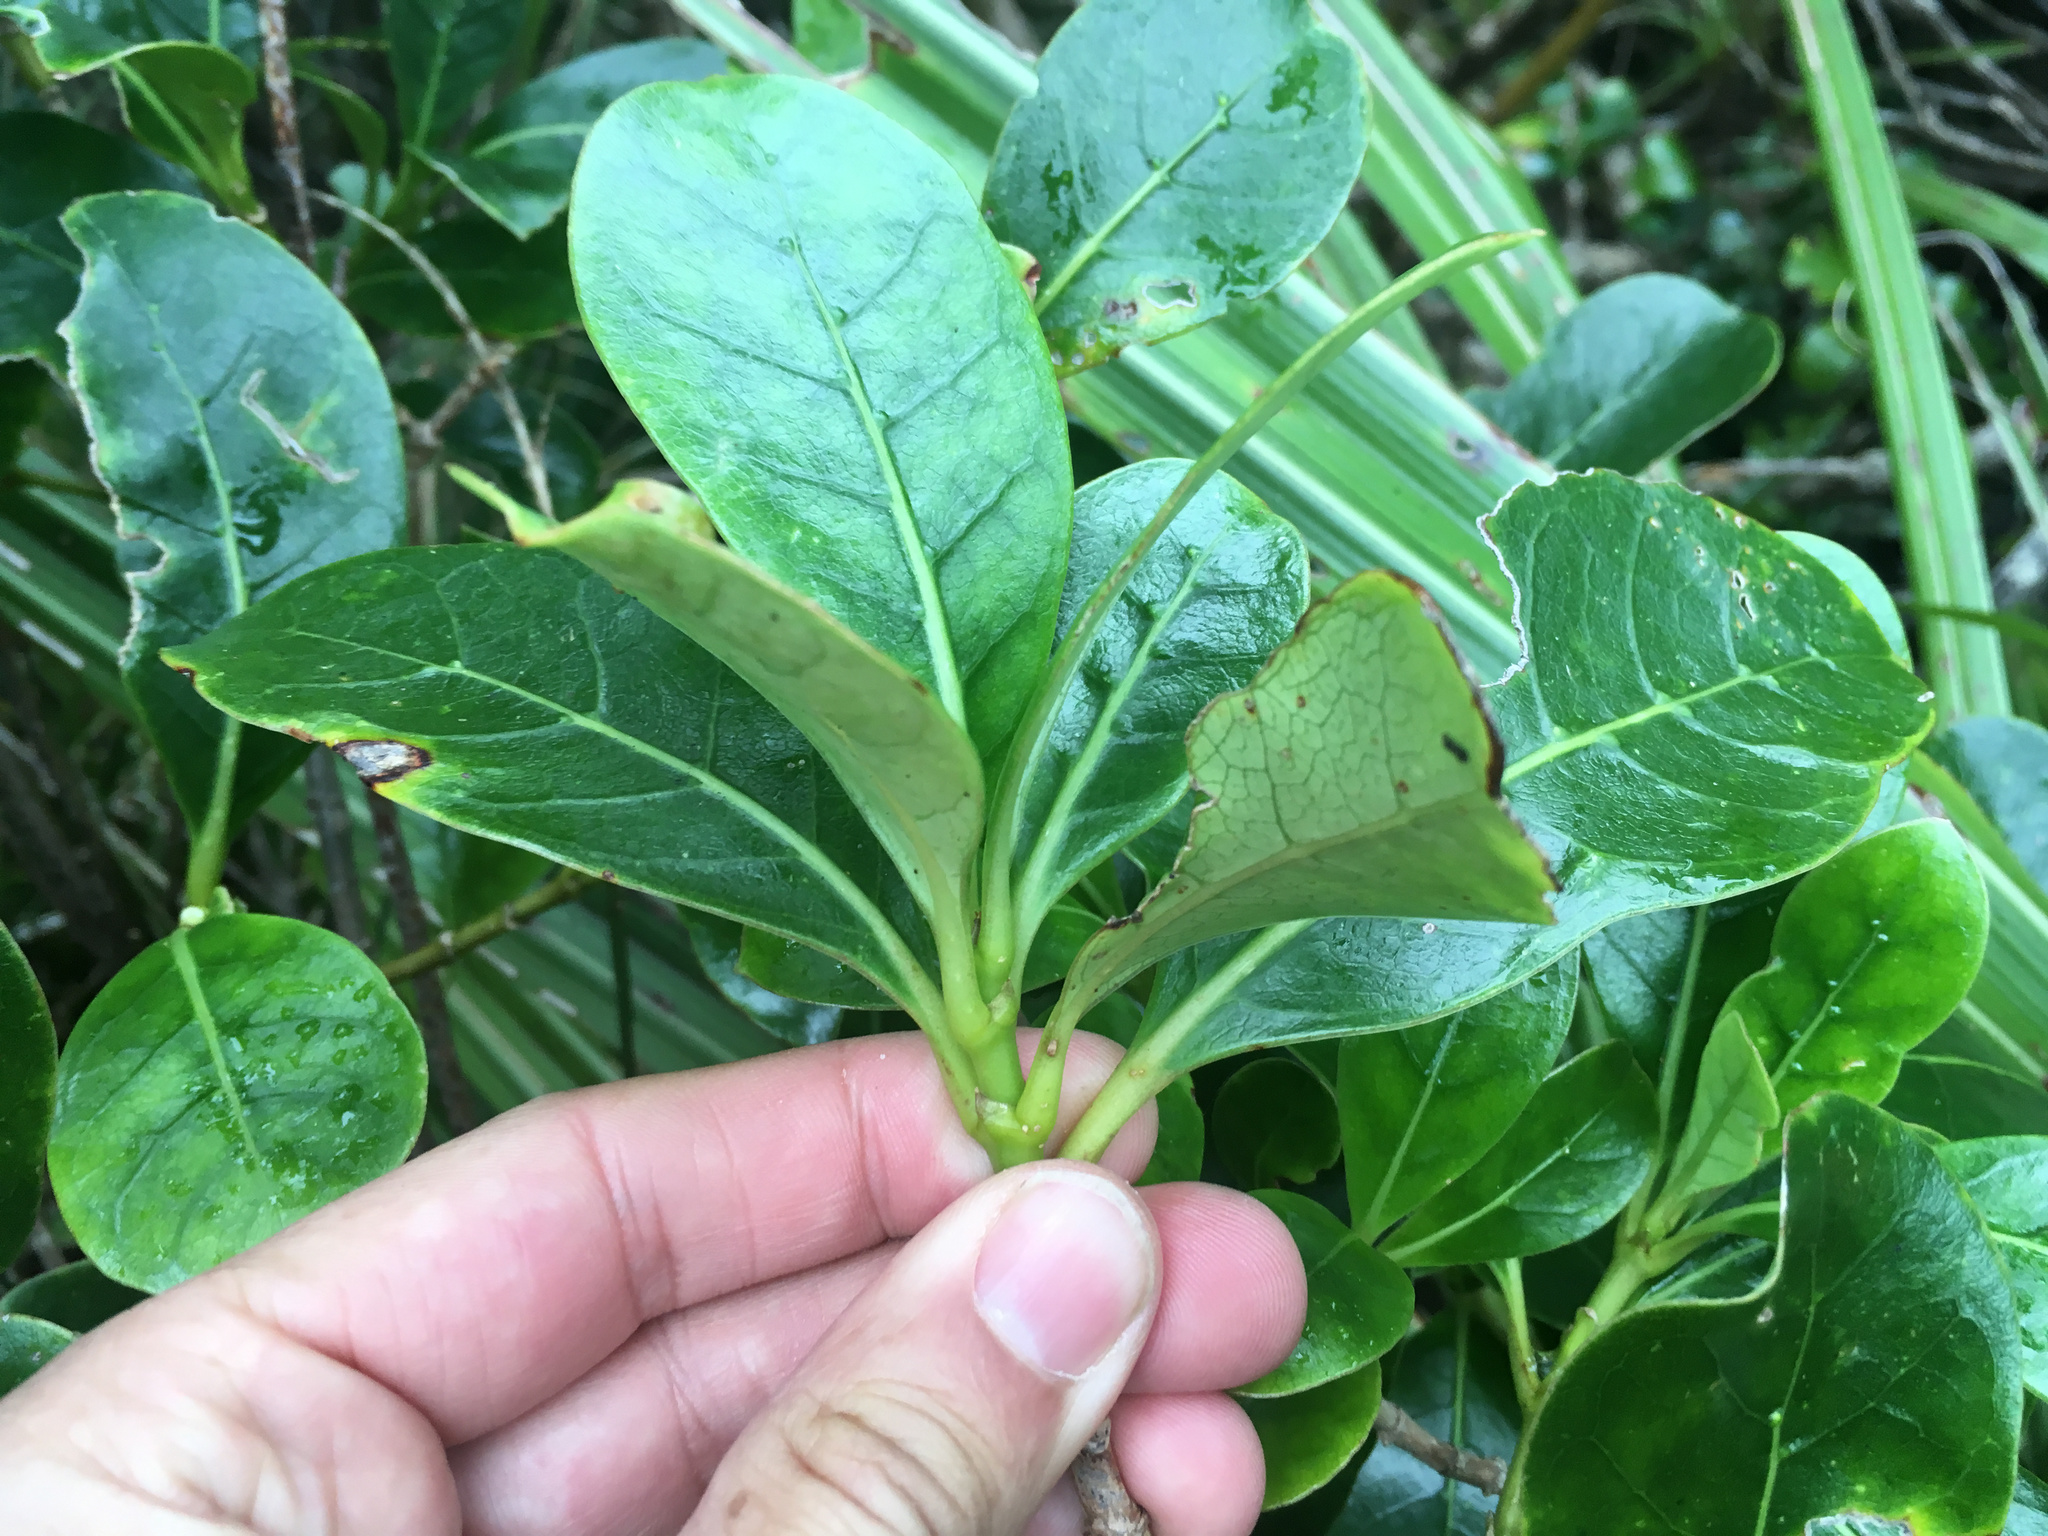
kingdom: Plantae
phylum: Tracheophyta
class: Magnoliopsida
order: Gentianales
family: Rubiaceae
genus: Coprosma
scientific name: Coprosma lucida
